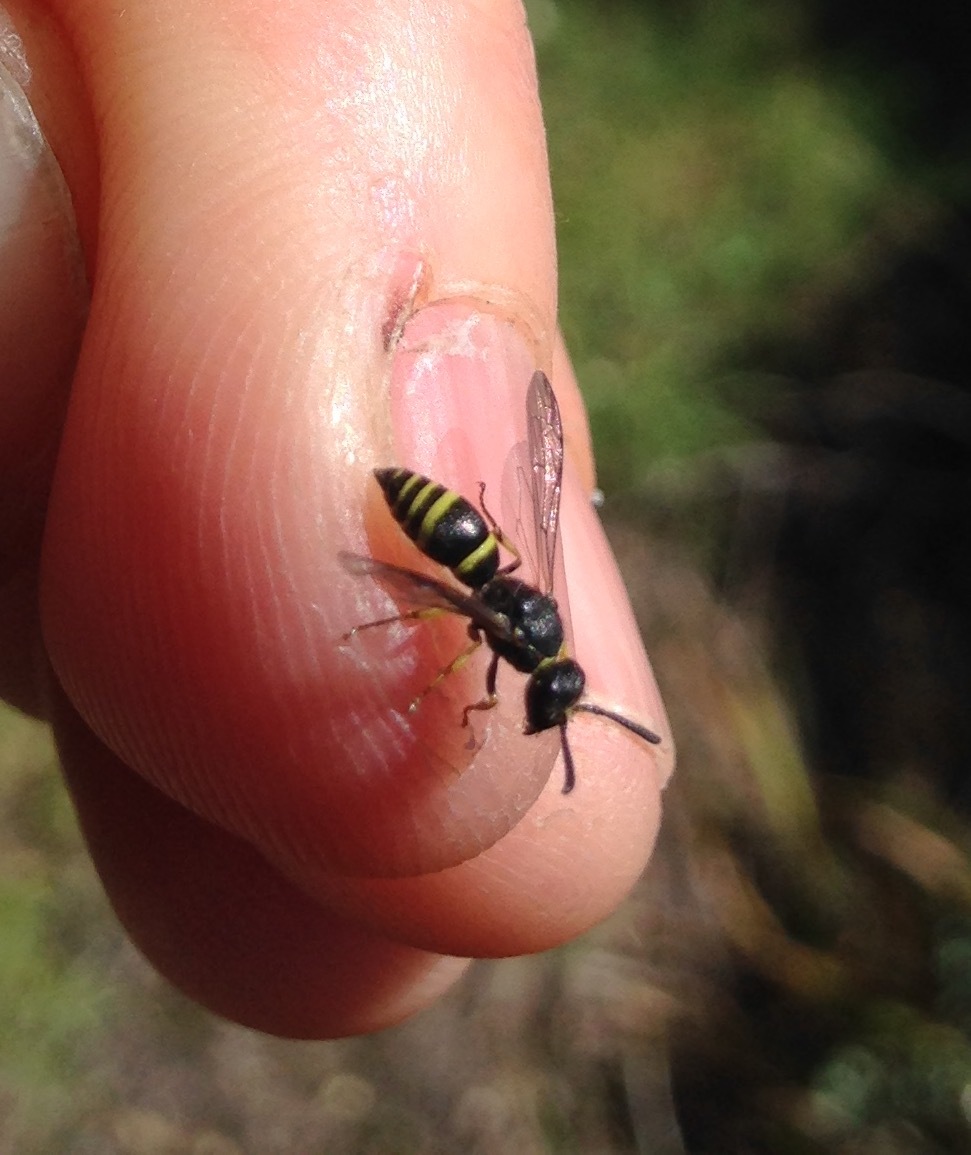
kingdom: Animalia
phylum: Arthropoda
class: Insecta
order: Hymenoptera
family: Vespidae
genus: Ancistrocerus
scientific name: Ancistrocerus gazella
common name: European tube wasp
